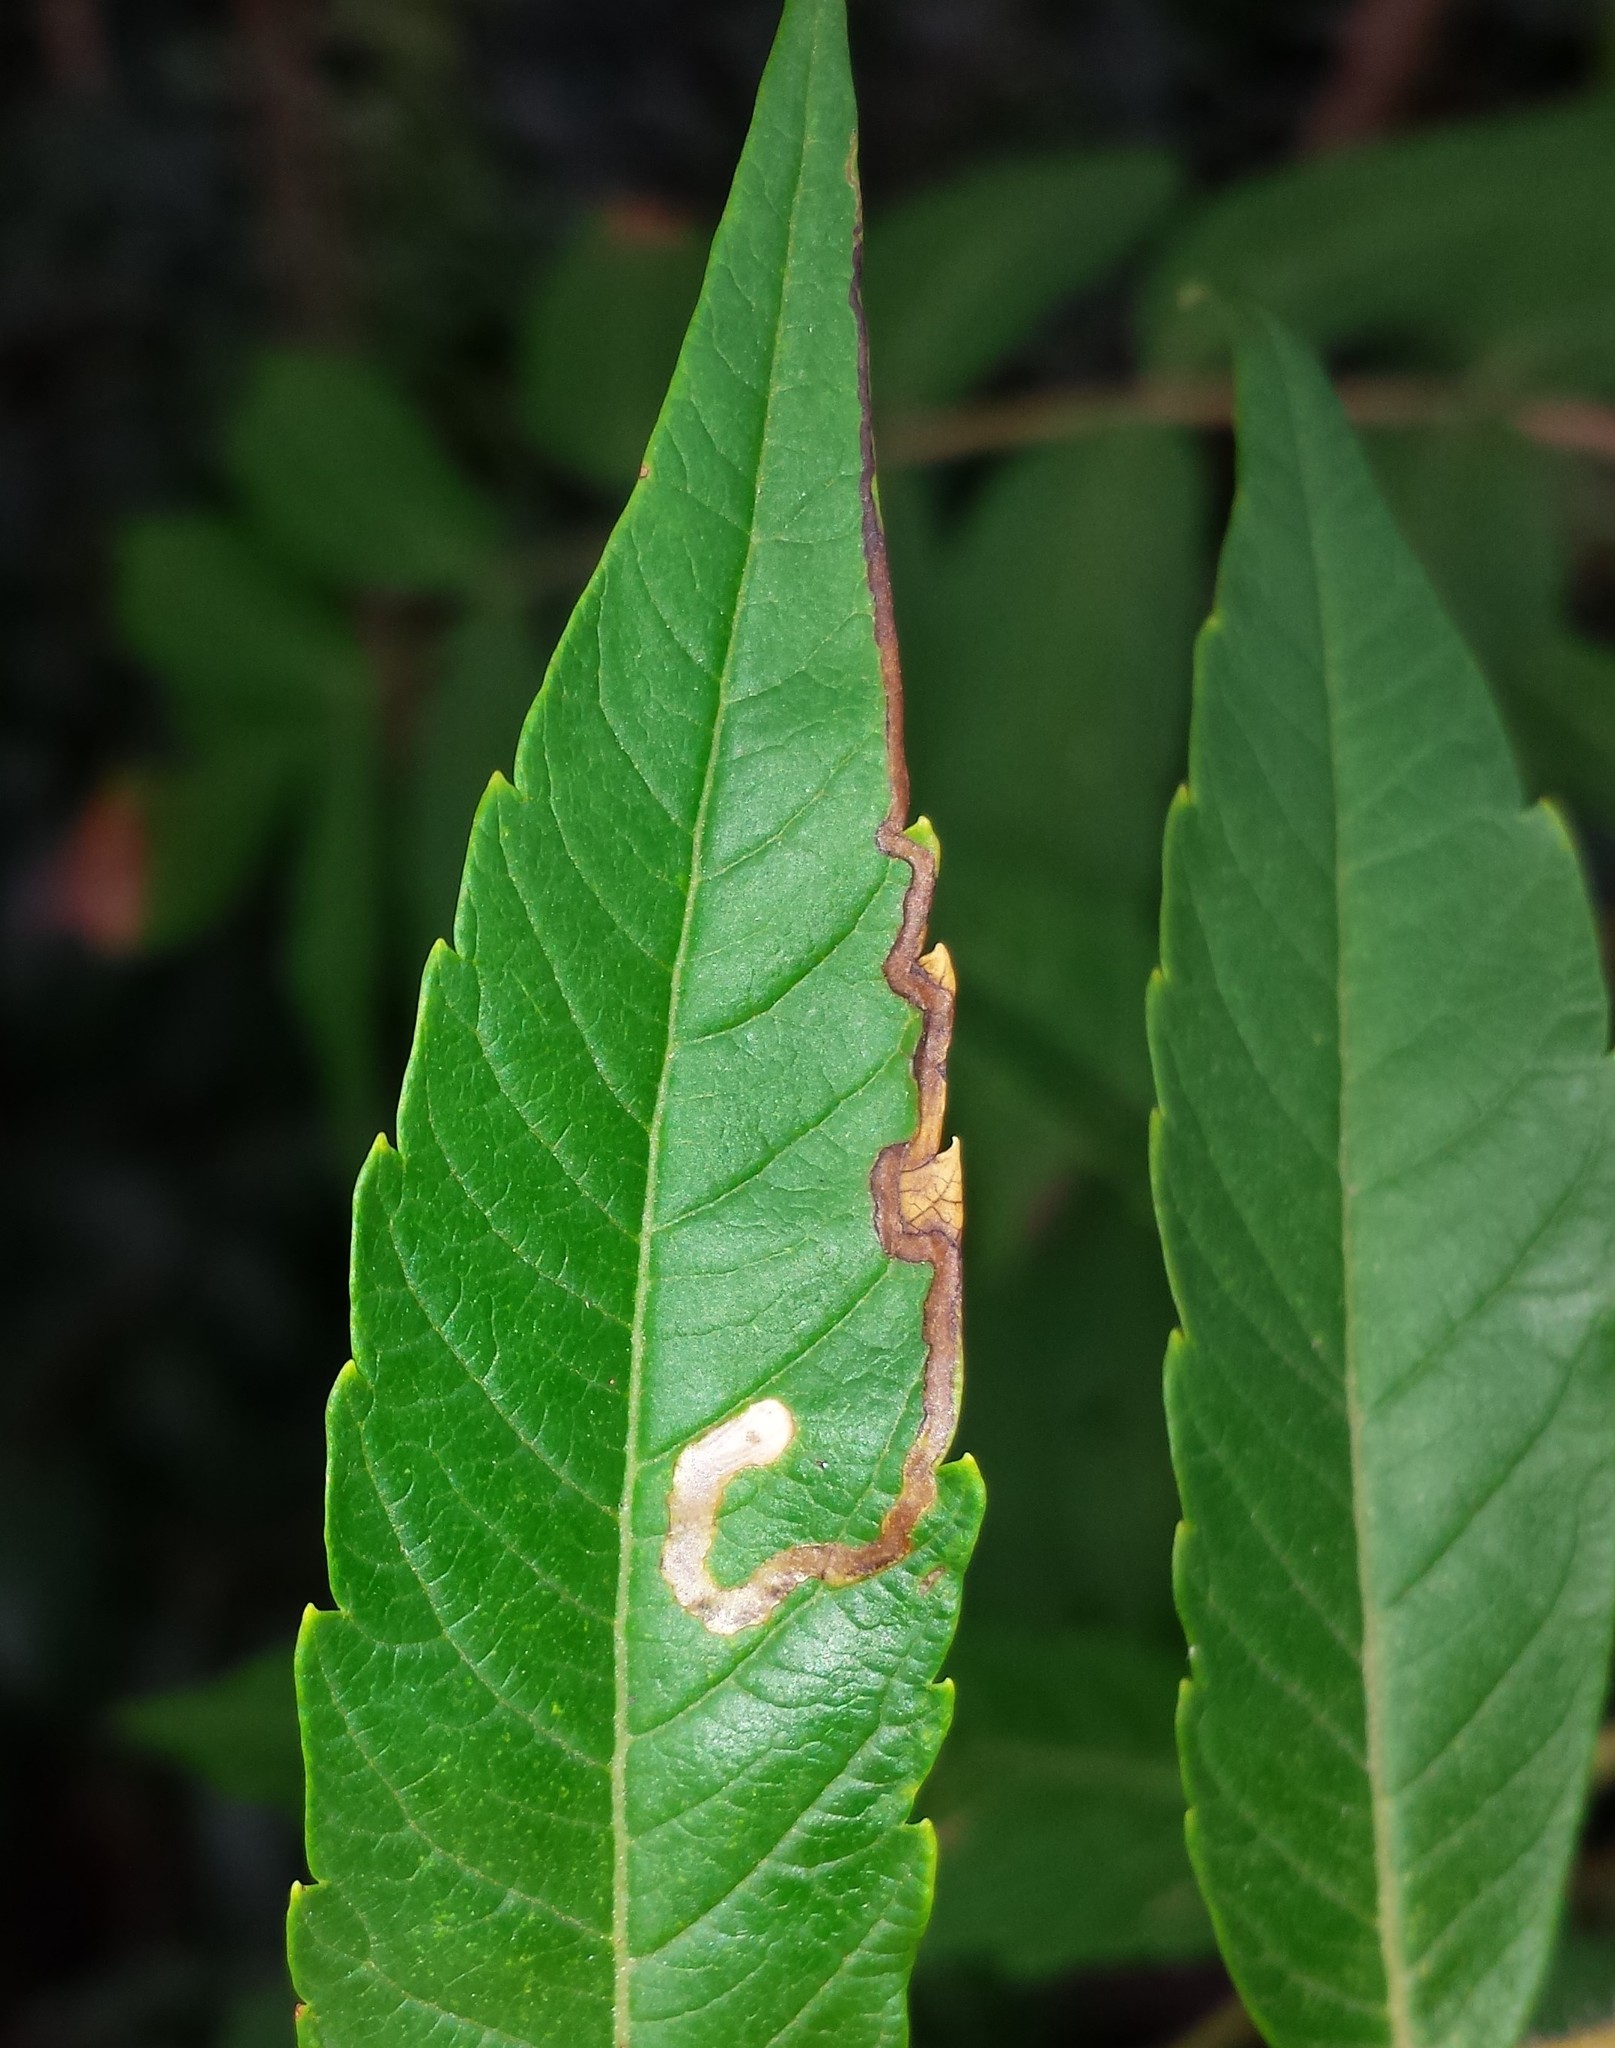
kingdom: Animalia
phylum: Arthropoda
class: Insecta
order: Lepidoptera
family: Nepticulidae
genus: Stigmella
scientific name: Stigmella intermedia
